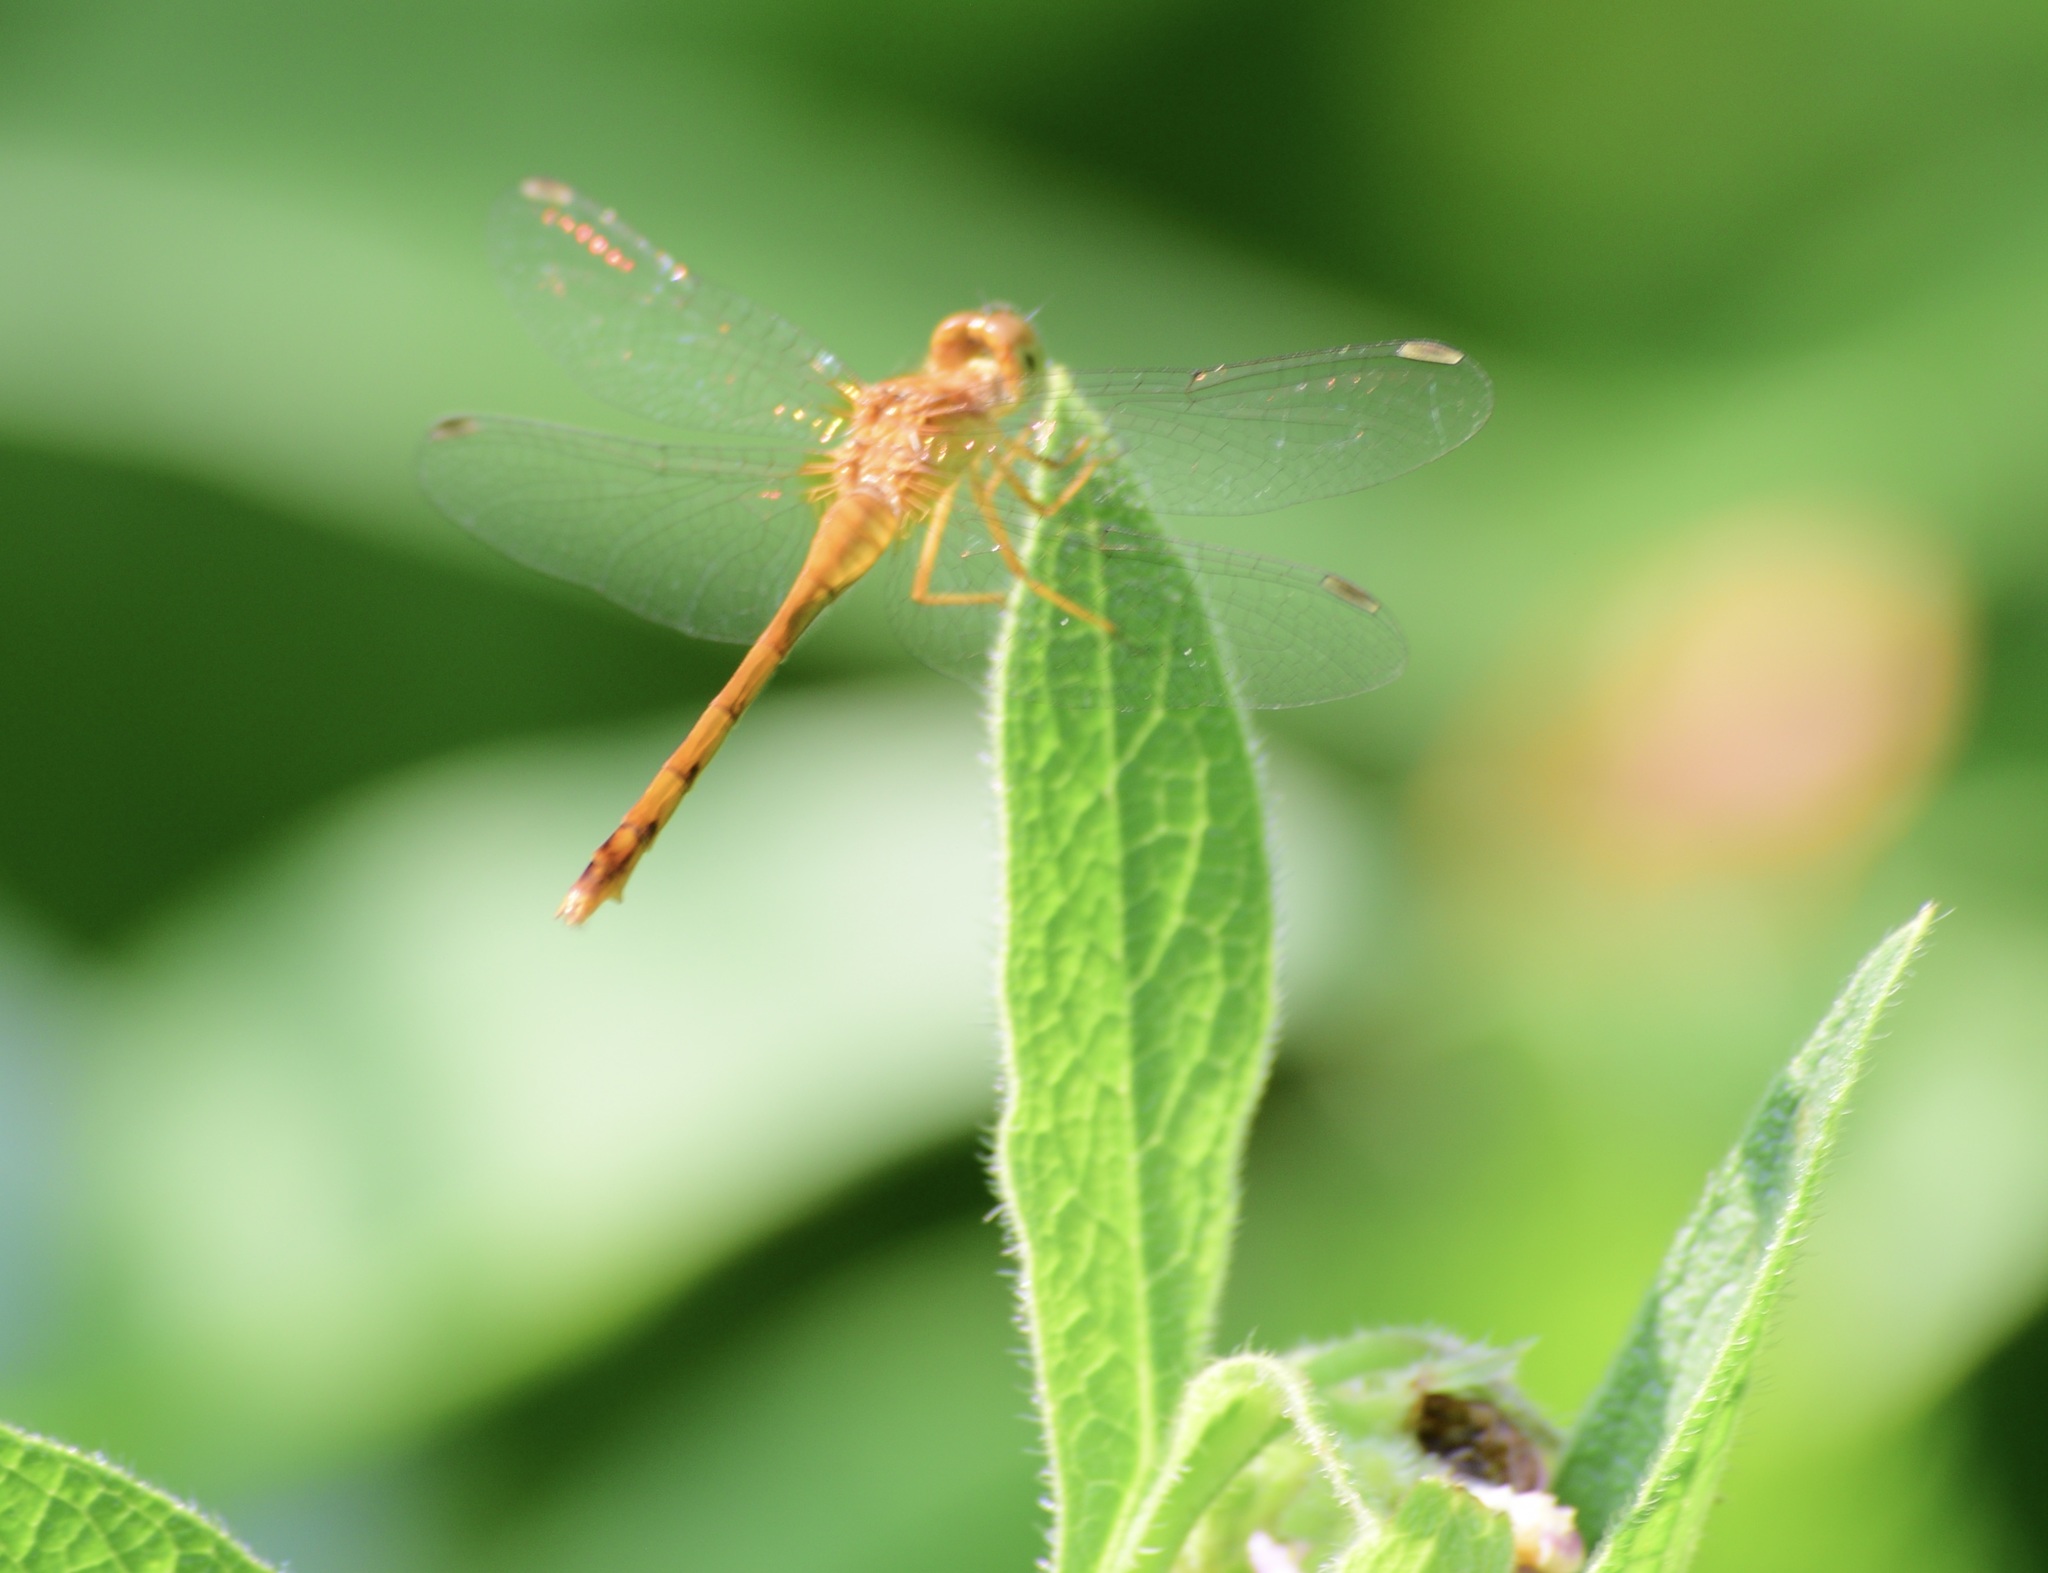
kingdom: Animalia
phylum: Arthropoda
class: Insecta
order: Odonata
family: Libellulidae
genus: Sympetrum
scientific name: Sympetrum vicinum
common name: Autumn meadowhawk
